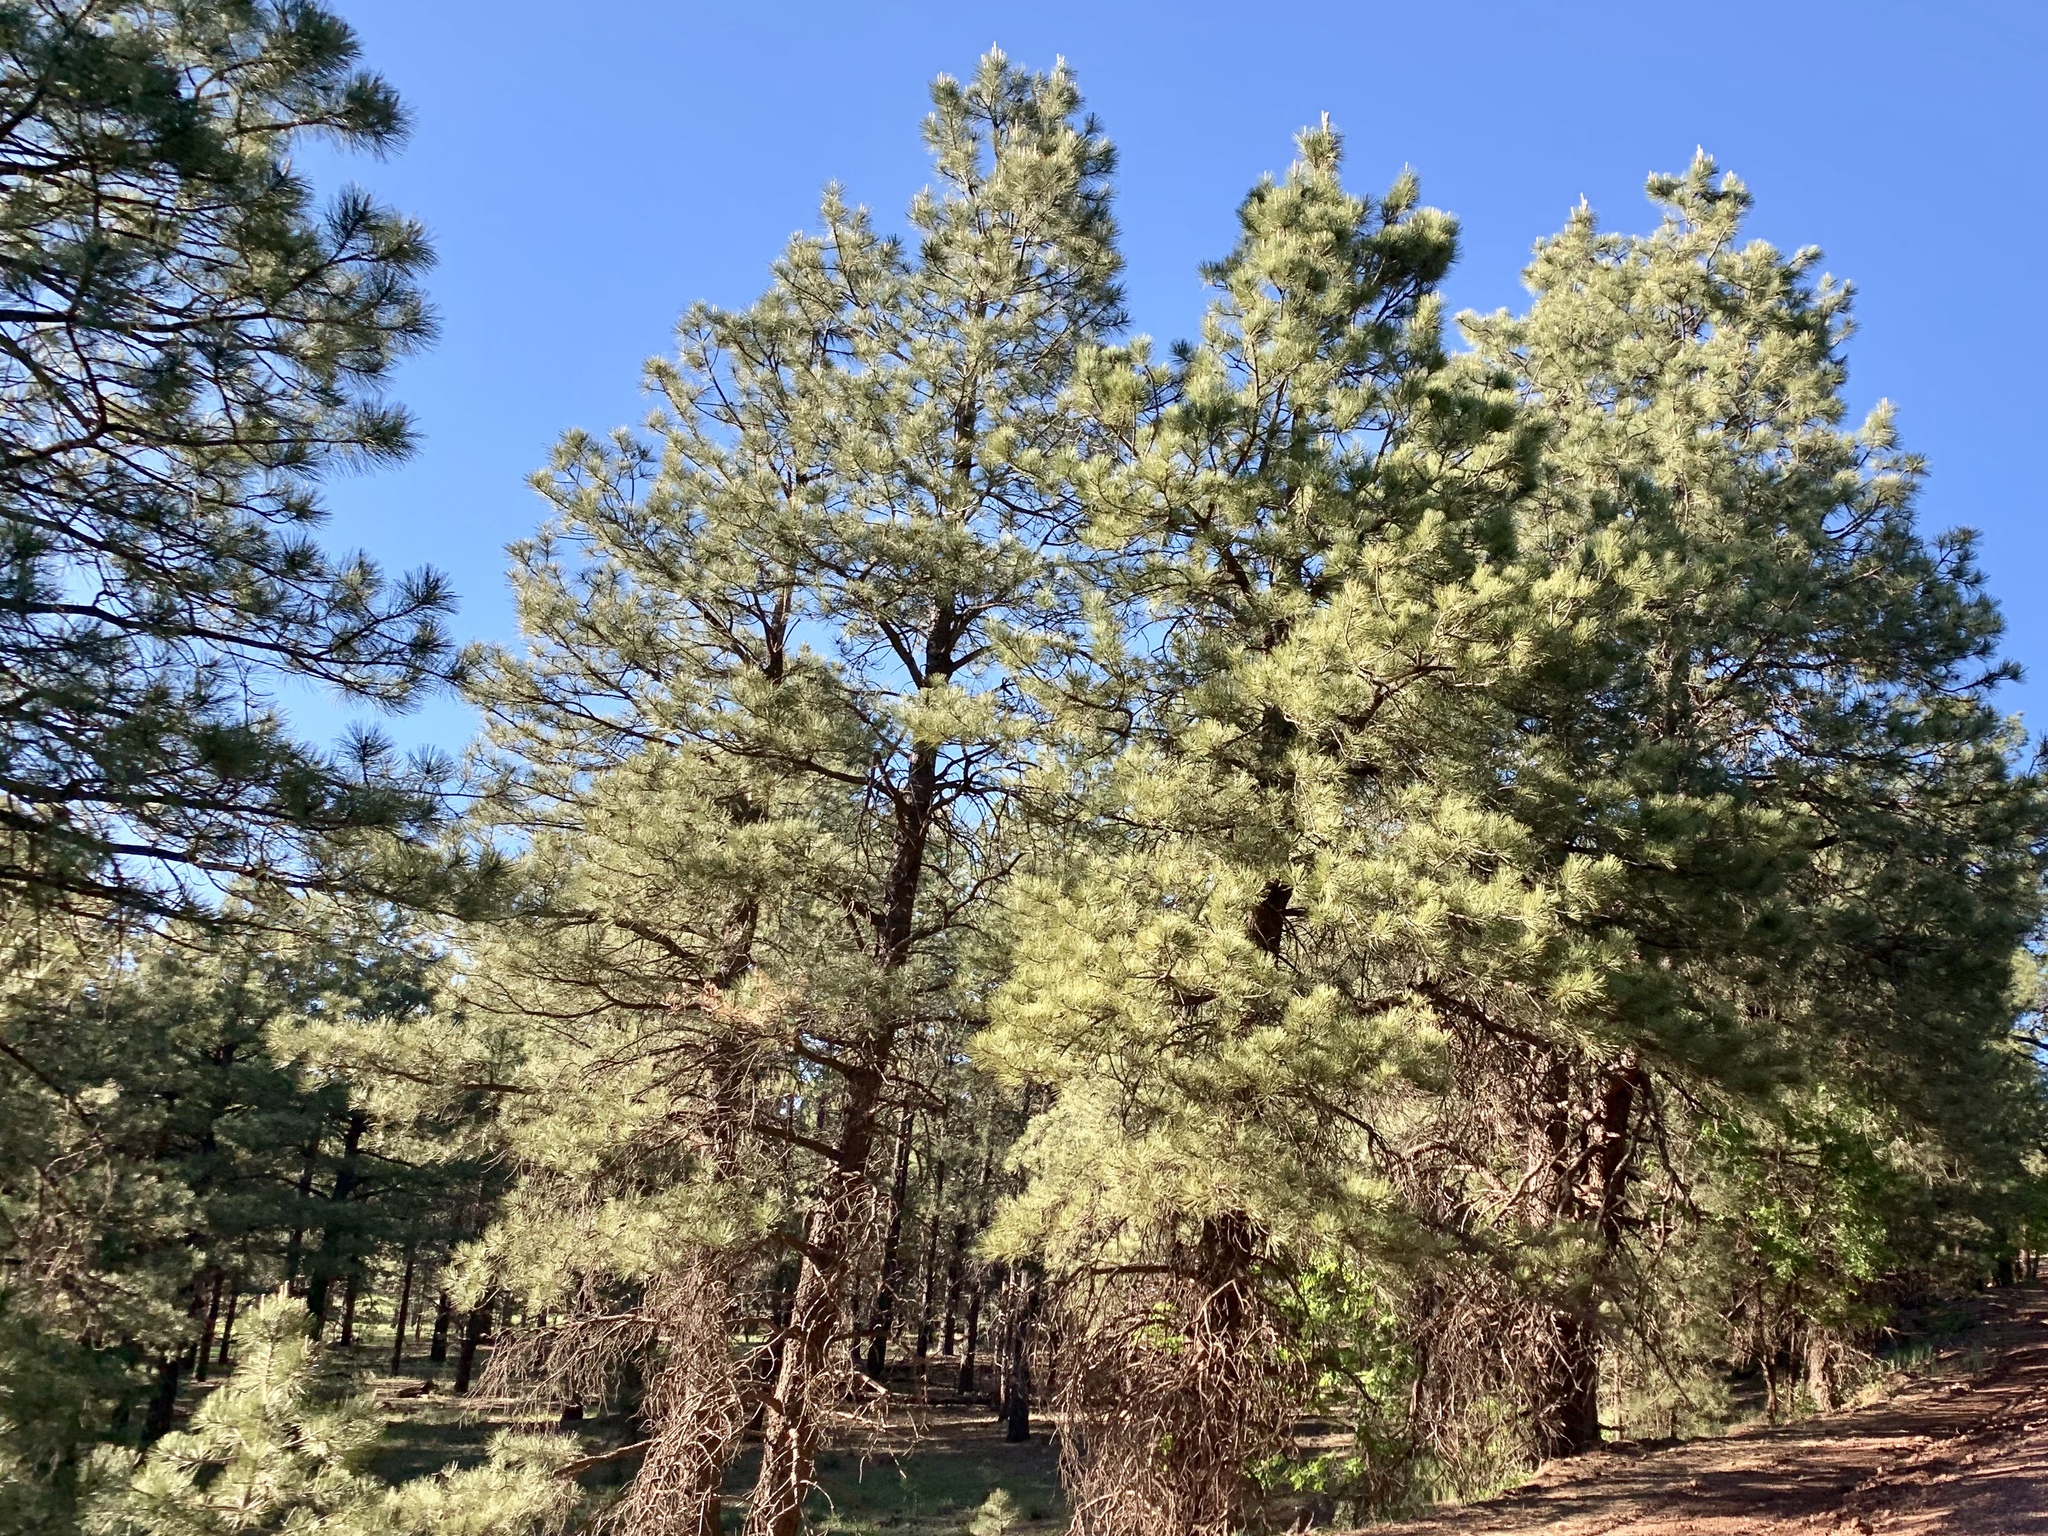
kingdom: Plantae
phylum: Tracheophyta
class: Pinopsida
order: Pinales
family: Pinaceae
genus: Pinus
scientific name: Pinus ponderosa
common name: Western yellow-pine
